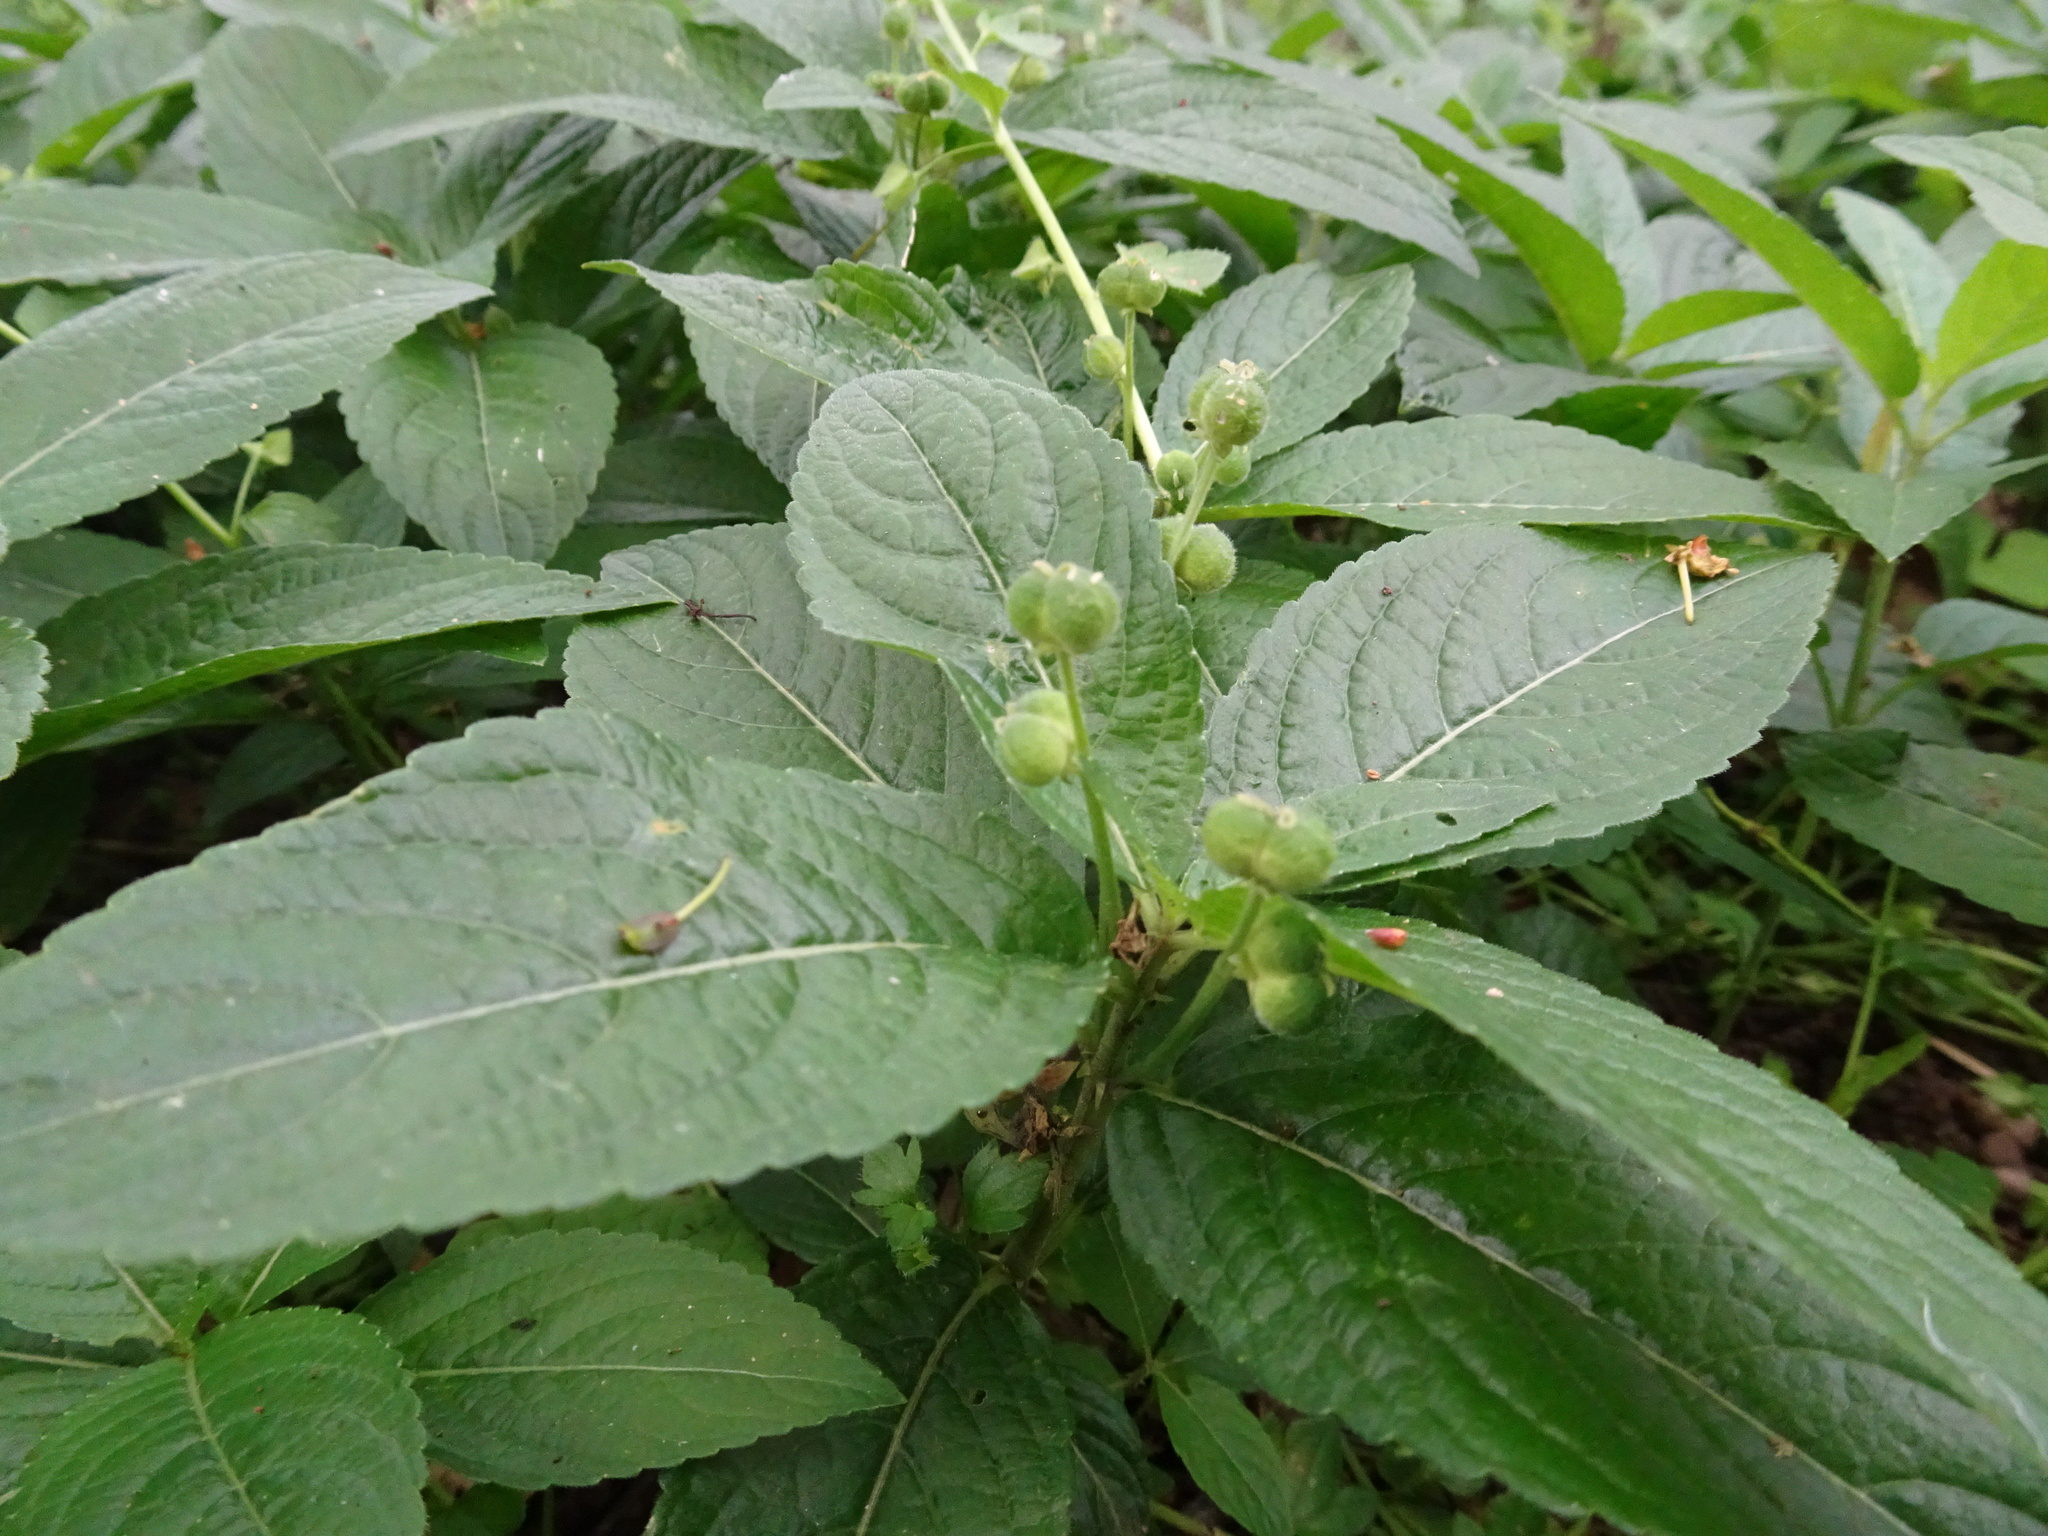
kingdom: Plantae
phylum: Tracheophyta
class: Magnoliopsida
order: Malpighiales
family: Euphorbiaceae
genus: Mercurialis
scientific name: Mercurialis perennis
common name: Dog mercury
